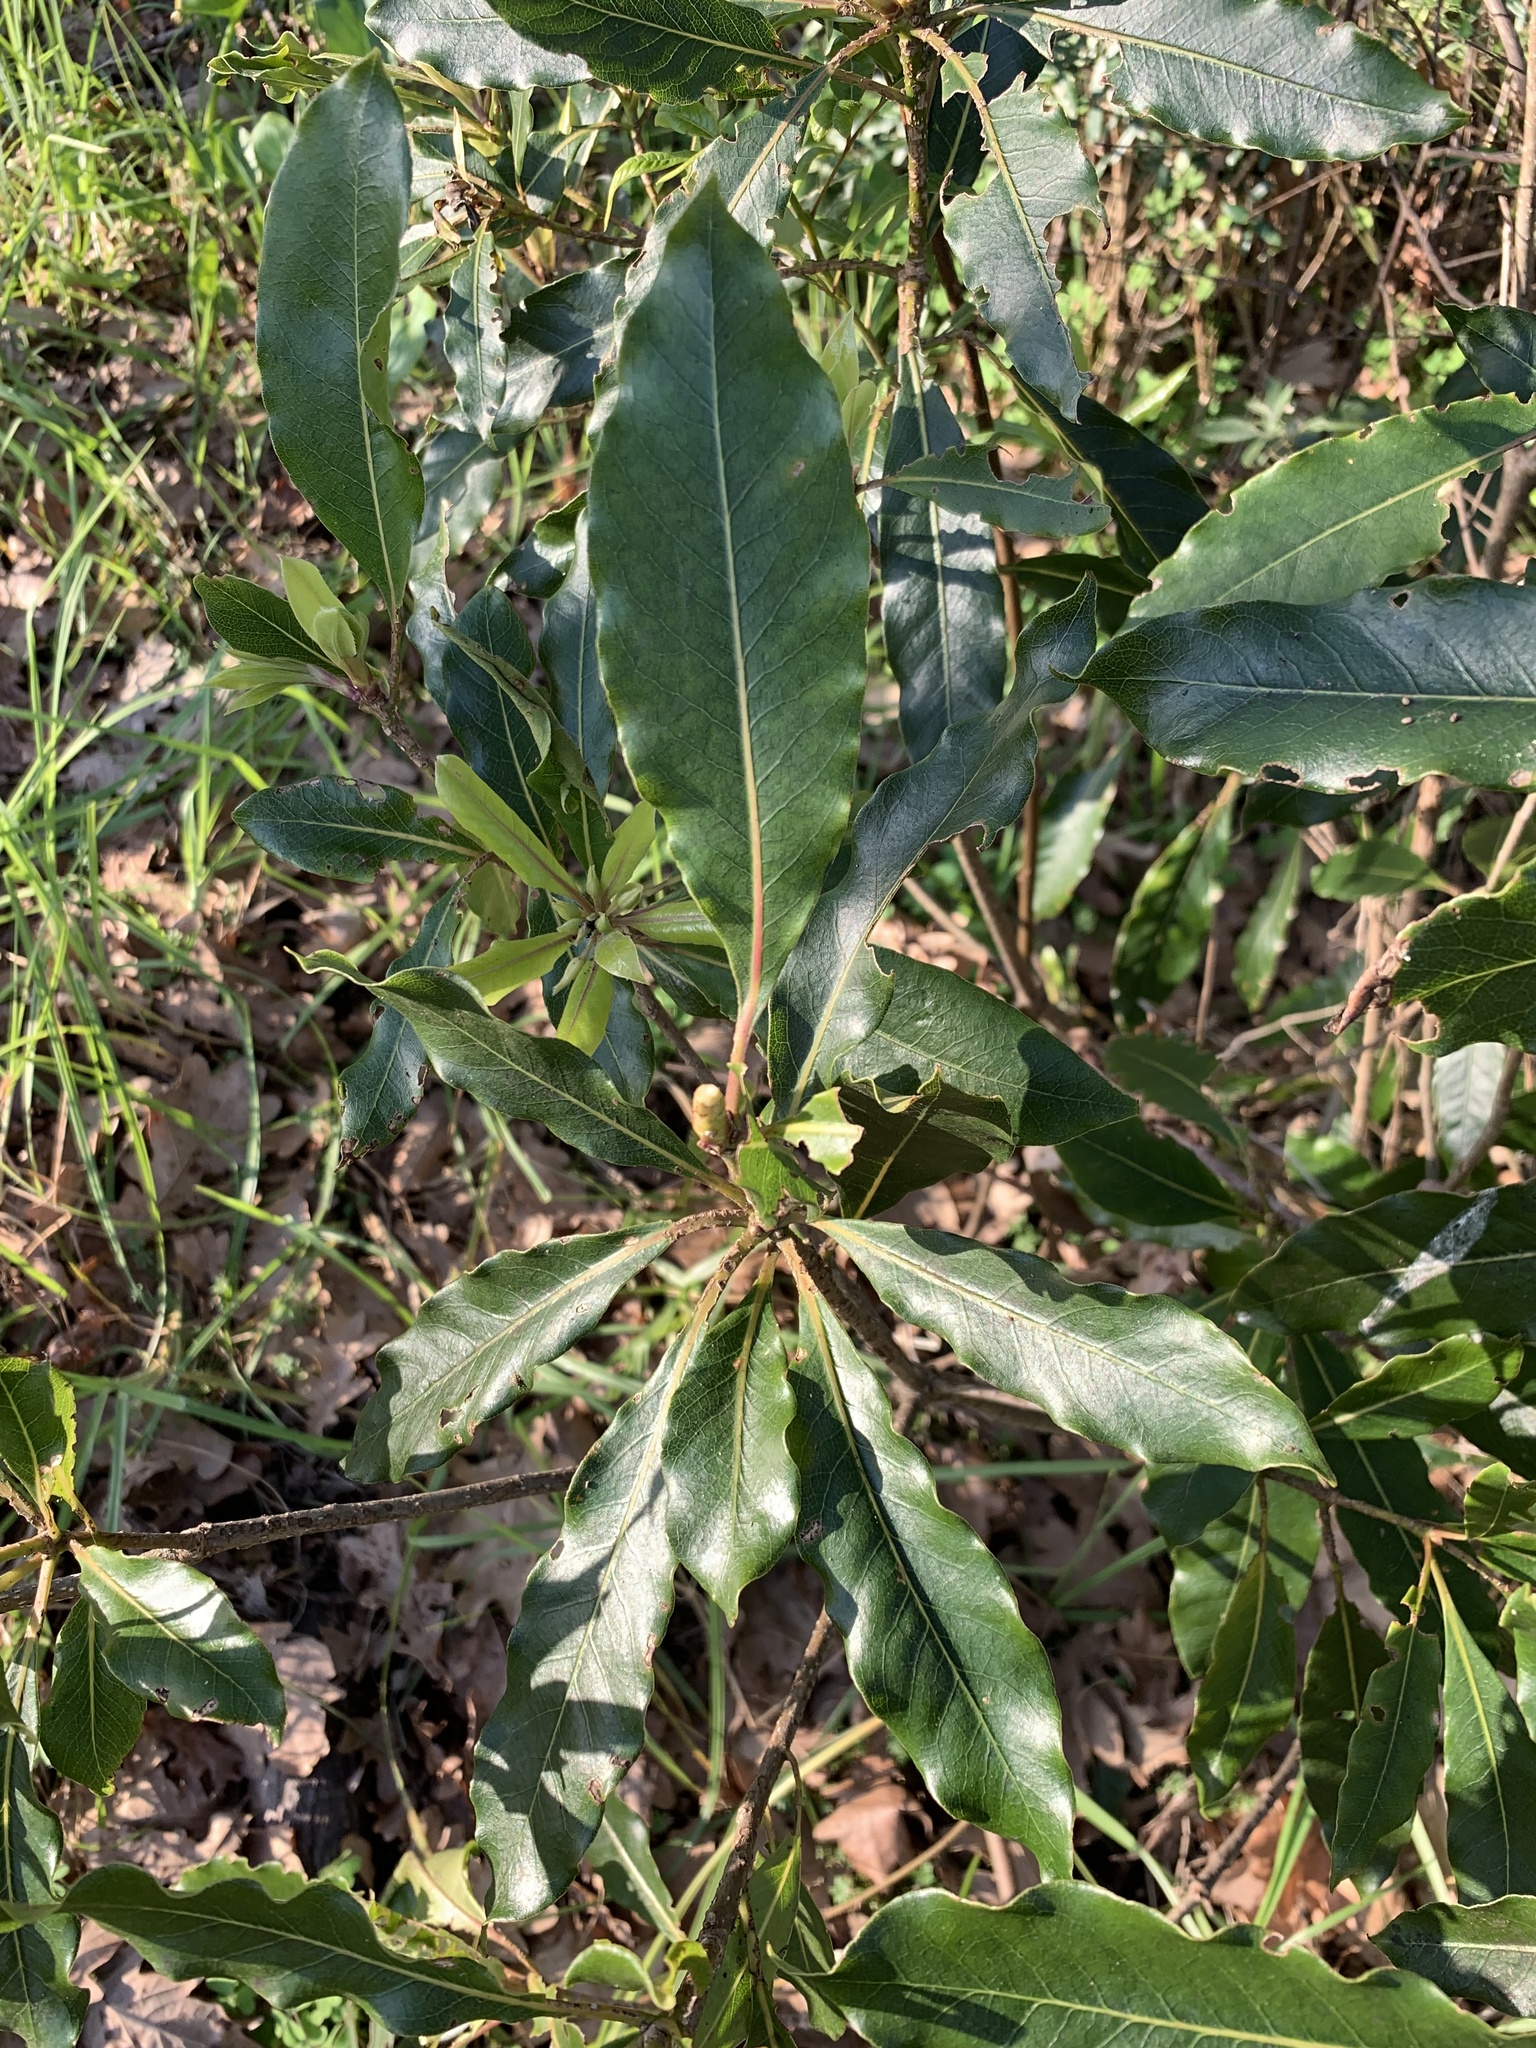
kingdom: Plantae
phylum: Tracheophyta
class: Magnoliopsida
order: Apiales
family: Pittosporaceae
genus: Pittosporum
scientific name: Pittosporum undulatum
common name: Australian cheesewood
